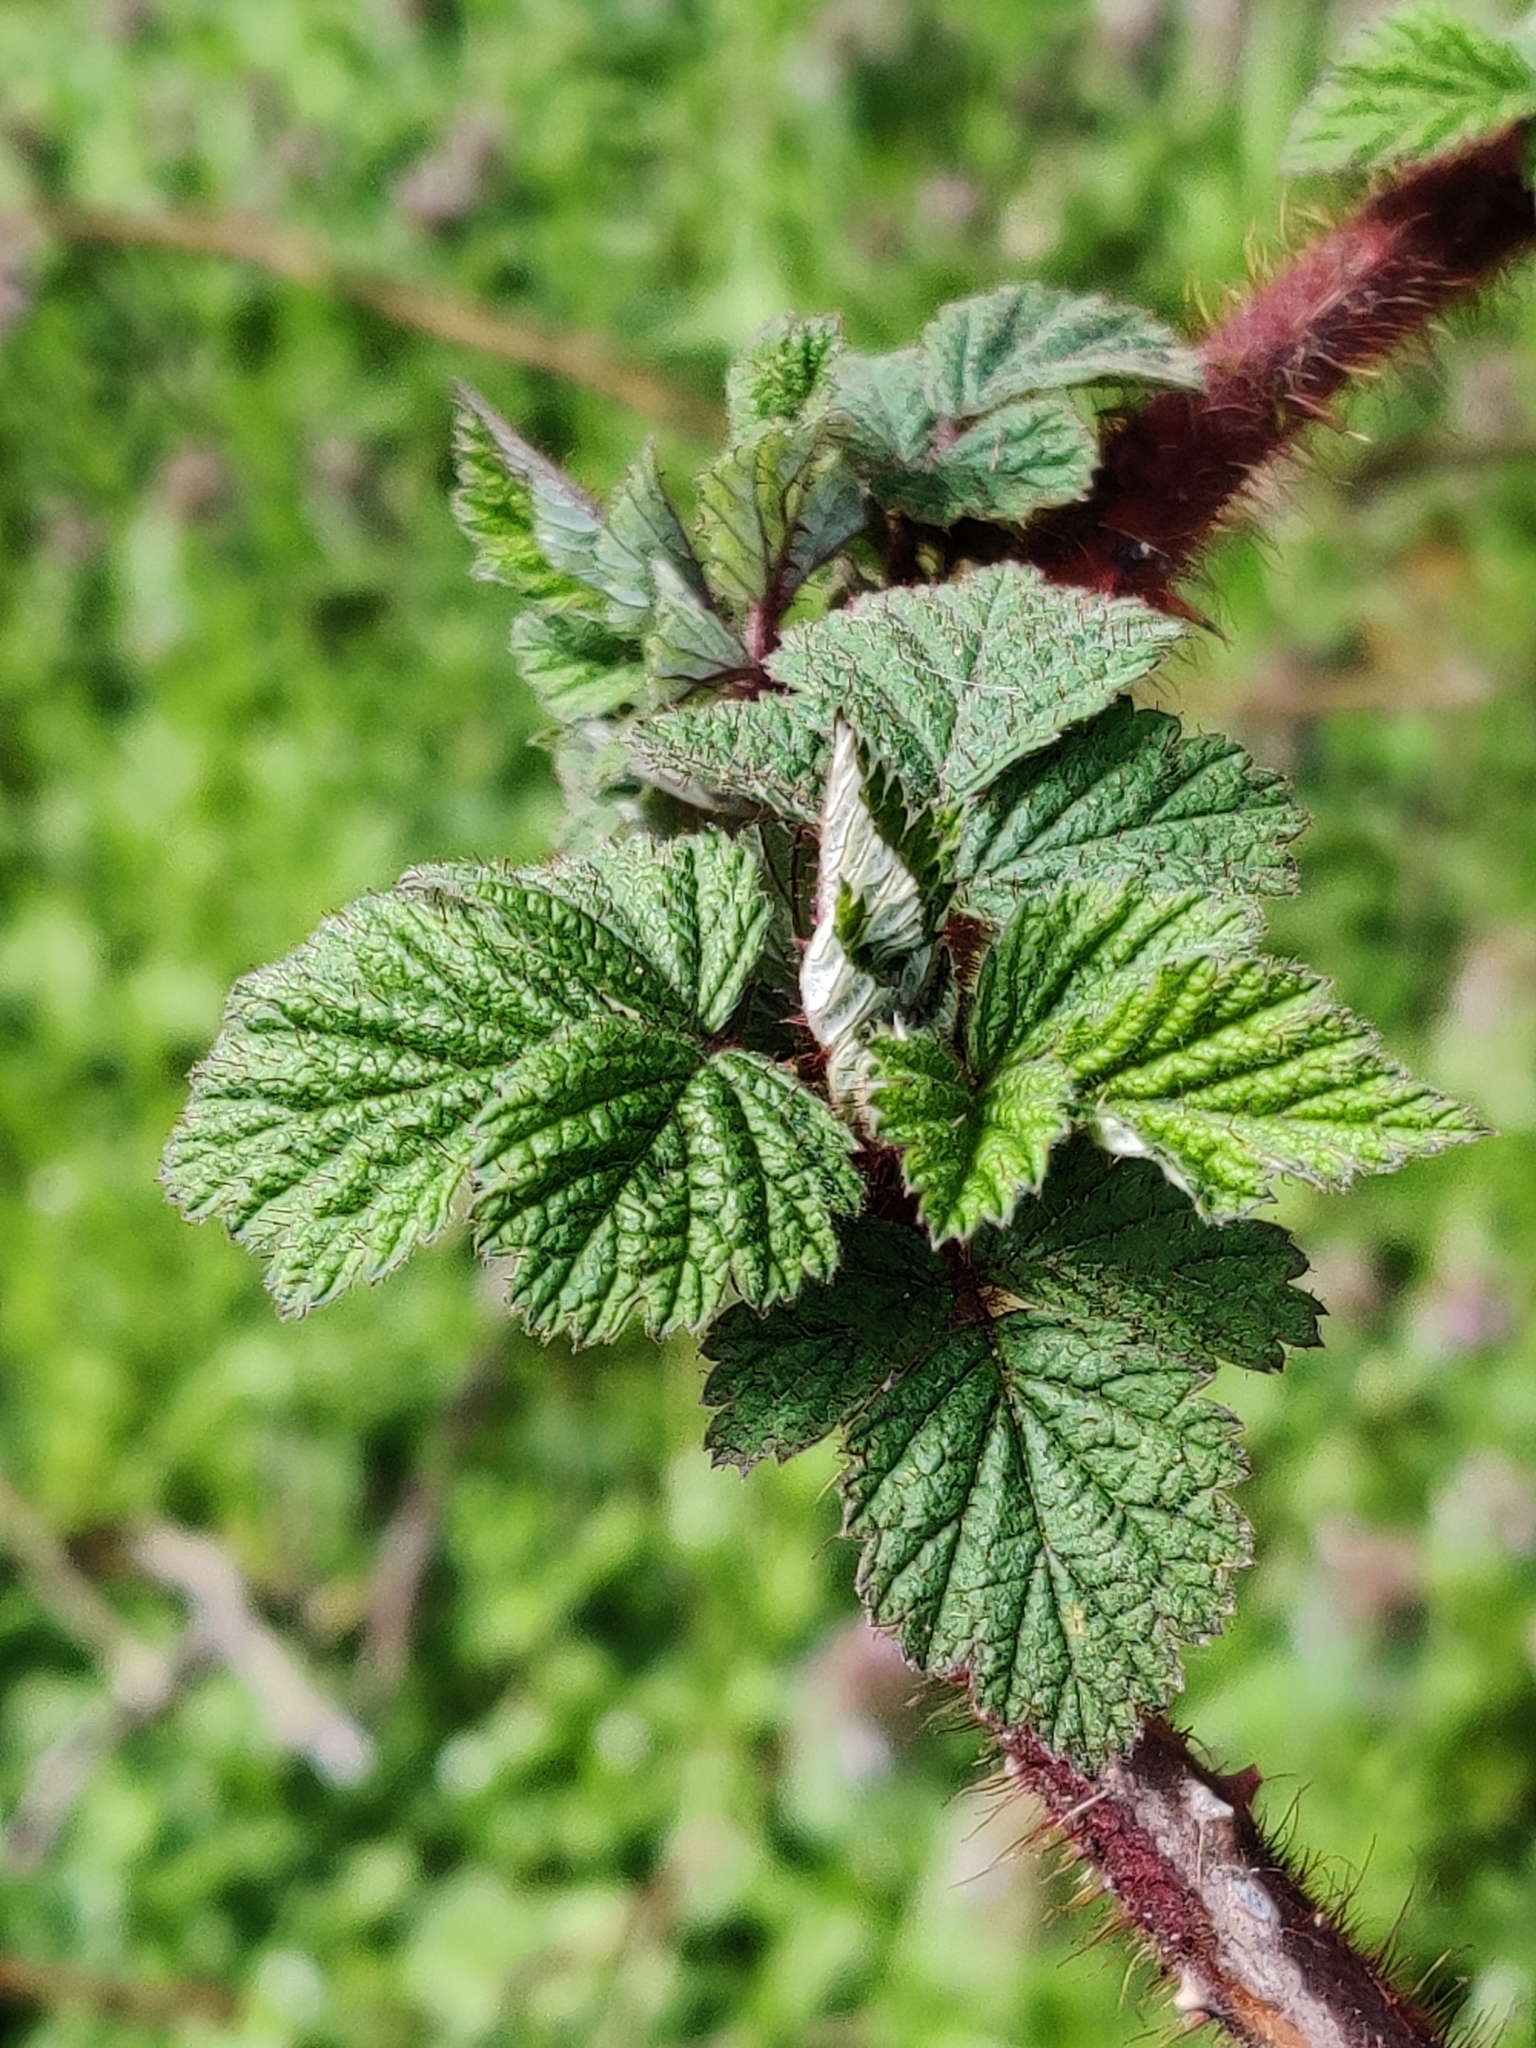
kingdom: Plantae
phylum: Tracheophyta
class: Magnoliopsida
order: Rosales
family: Rosaceae
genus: Rubus
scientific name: Rubus phoenicolasius
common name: Japanese wineberry
